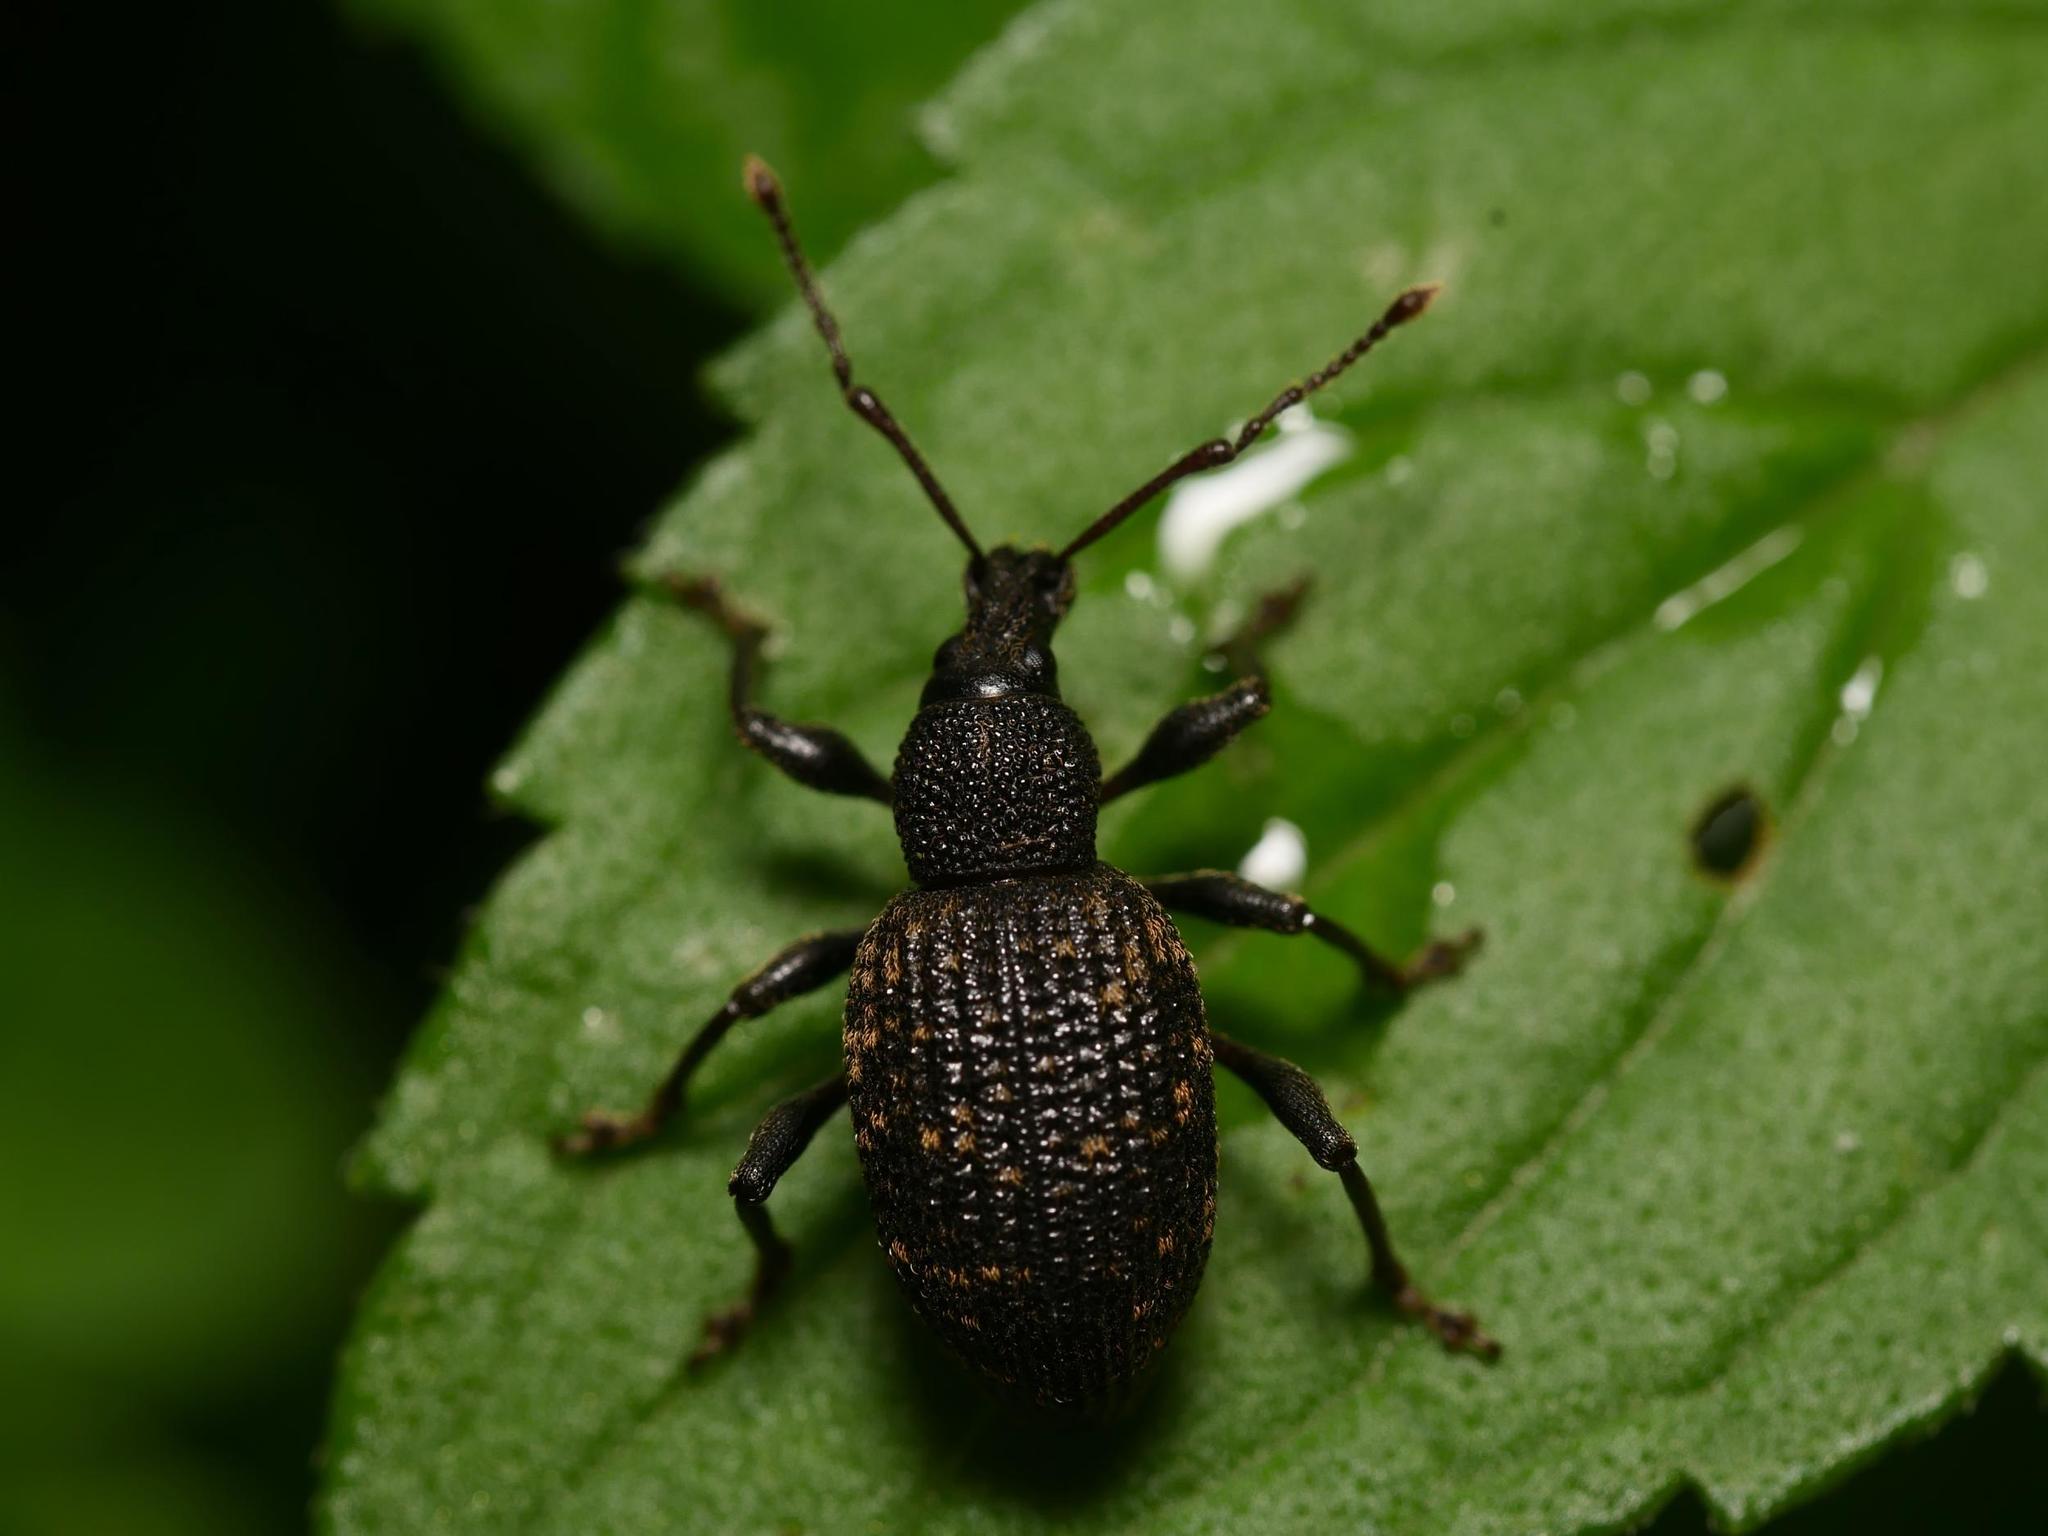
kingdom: Animalia
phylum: Arthropoda
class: Insecta
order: Coleoptera
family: Curculionidae
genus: Otiorhynchus
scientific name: Otiorhynchus sulcatus
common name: Black vine weevil
